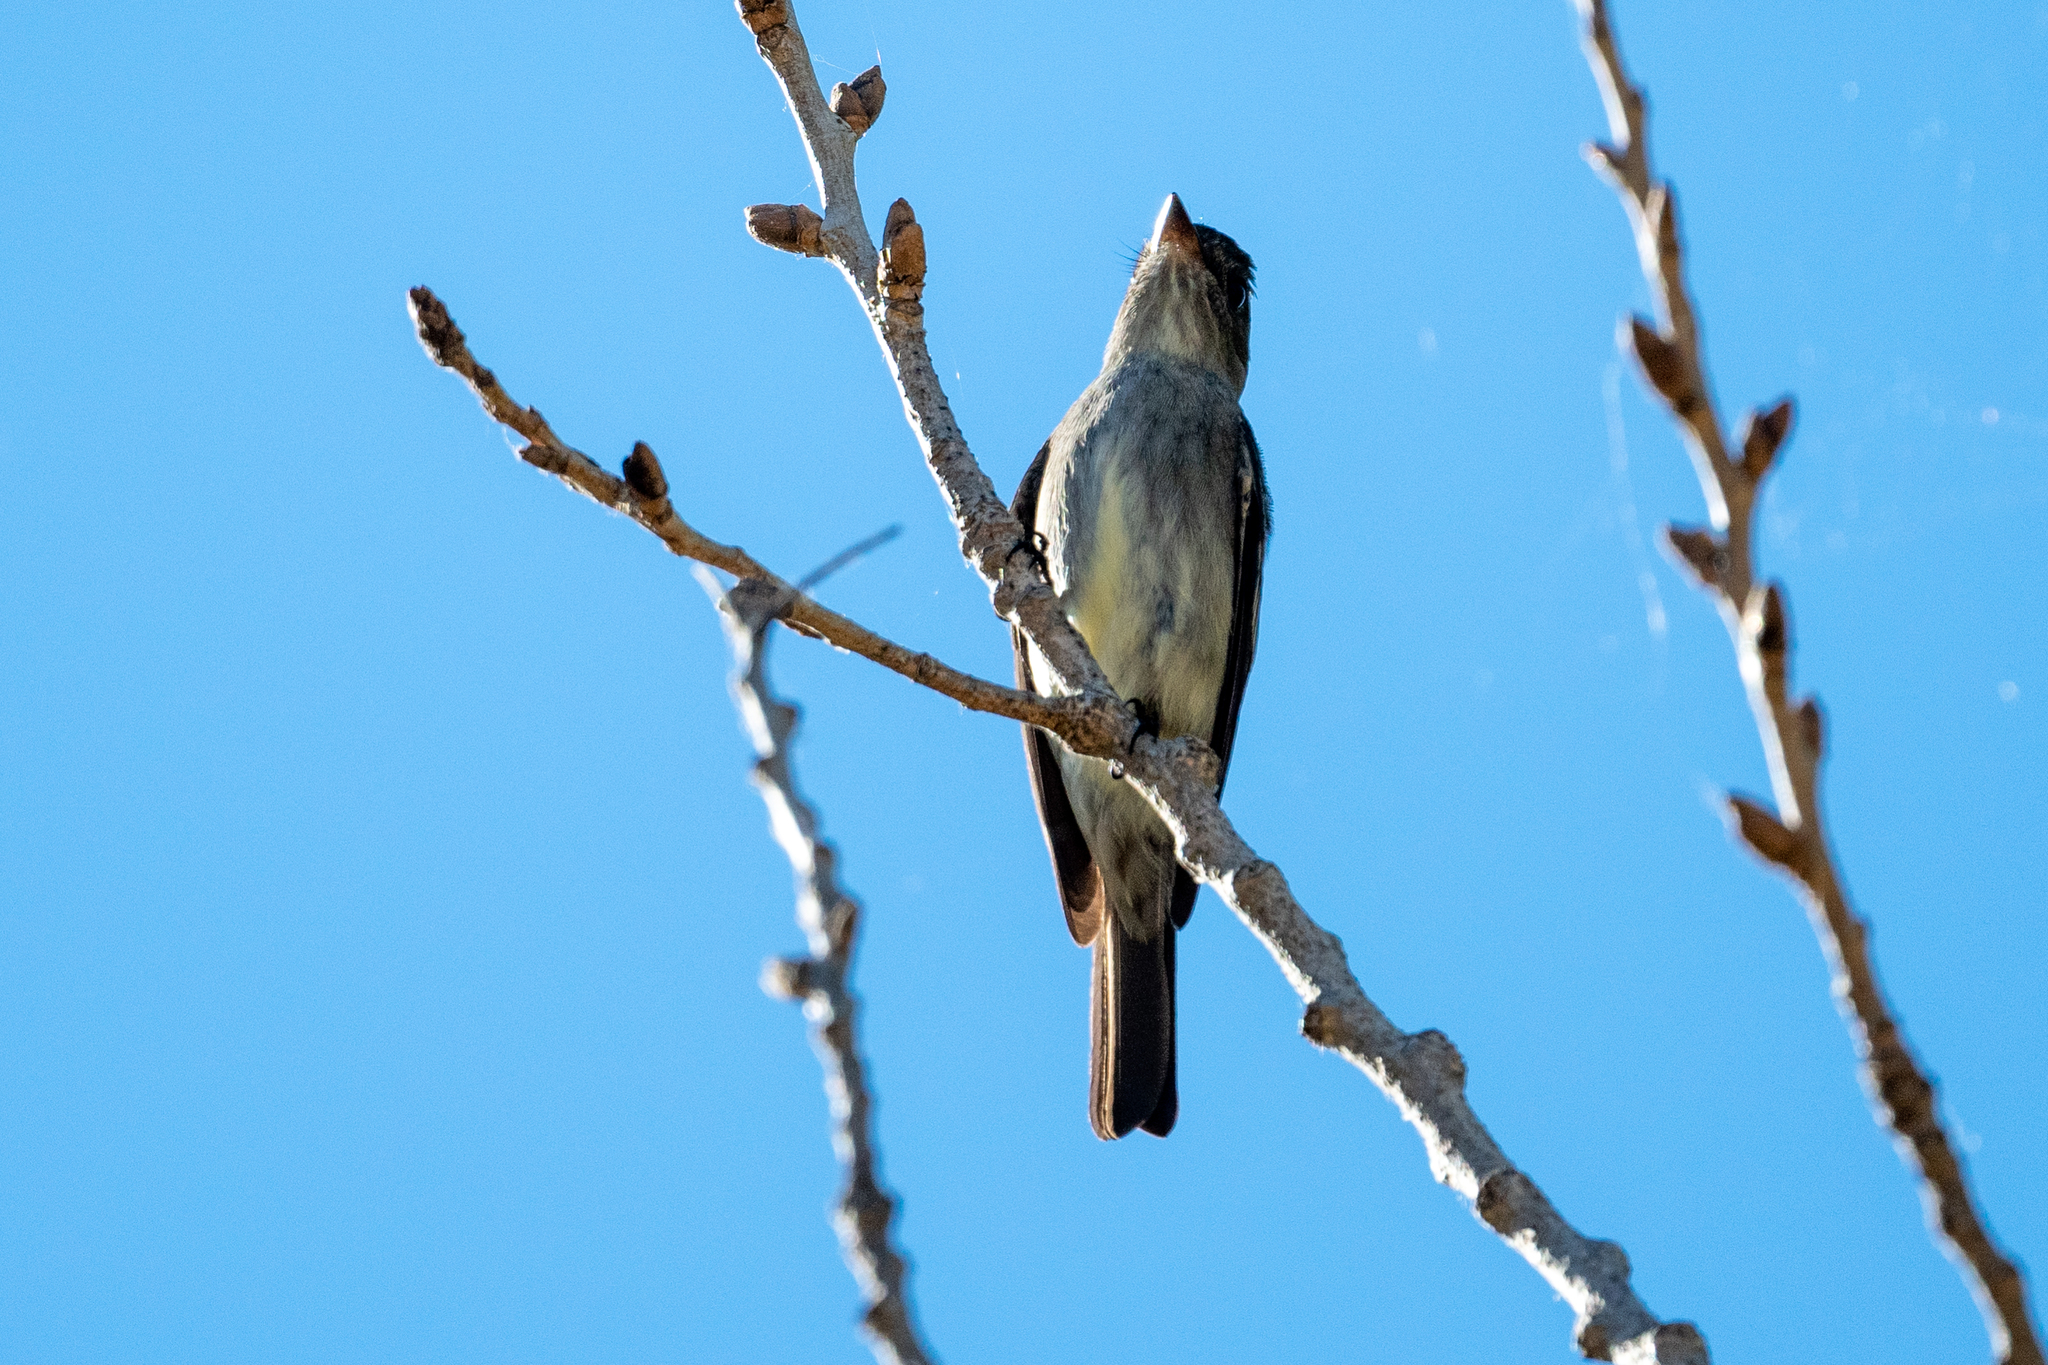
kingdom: Animalia
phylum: Chordata
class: Aves
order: Passeriformes
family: Tyrannidae
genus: Contopus
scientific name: Contopus cooperi
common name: Olive-sided flycatcher
